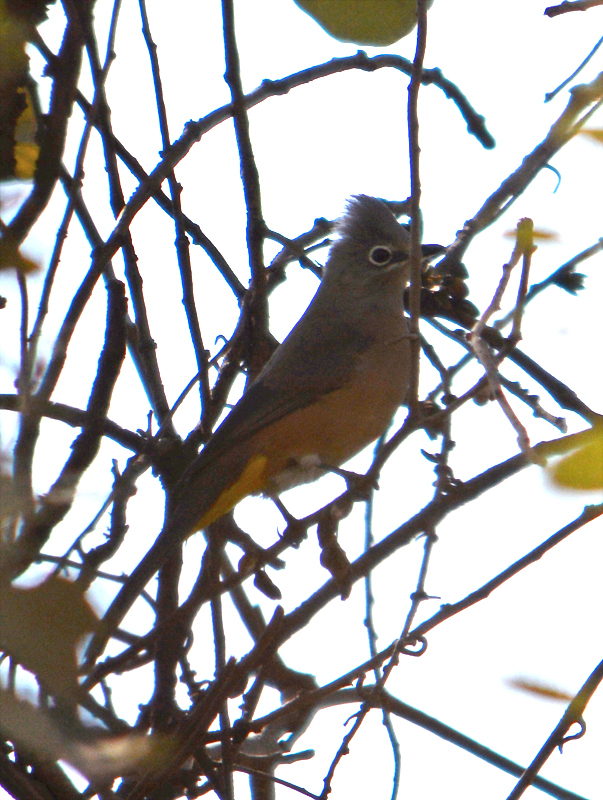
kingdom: Animalia
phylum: Chordata
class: Aves
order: Passeriformes
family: Ptilogonatidae
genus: Ptilogonys
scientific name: Ptilogonys cinereus
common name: Gray silky-flycatcher
